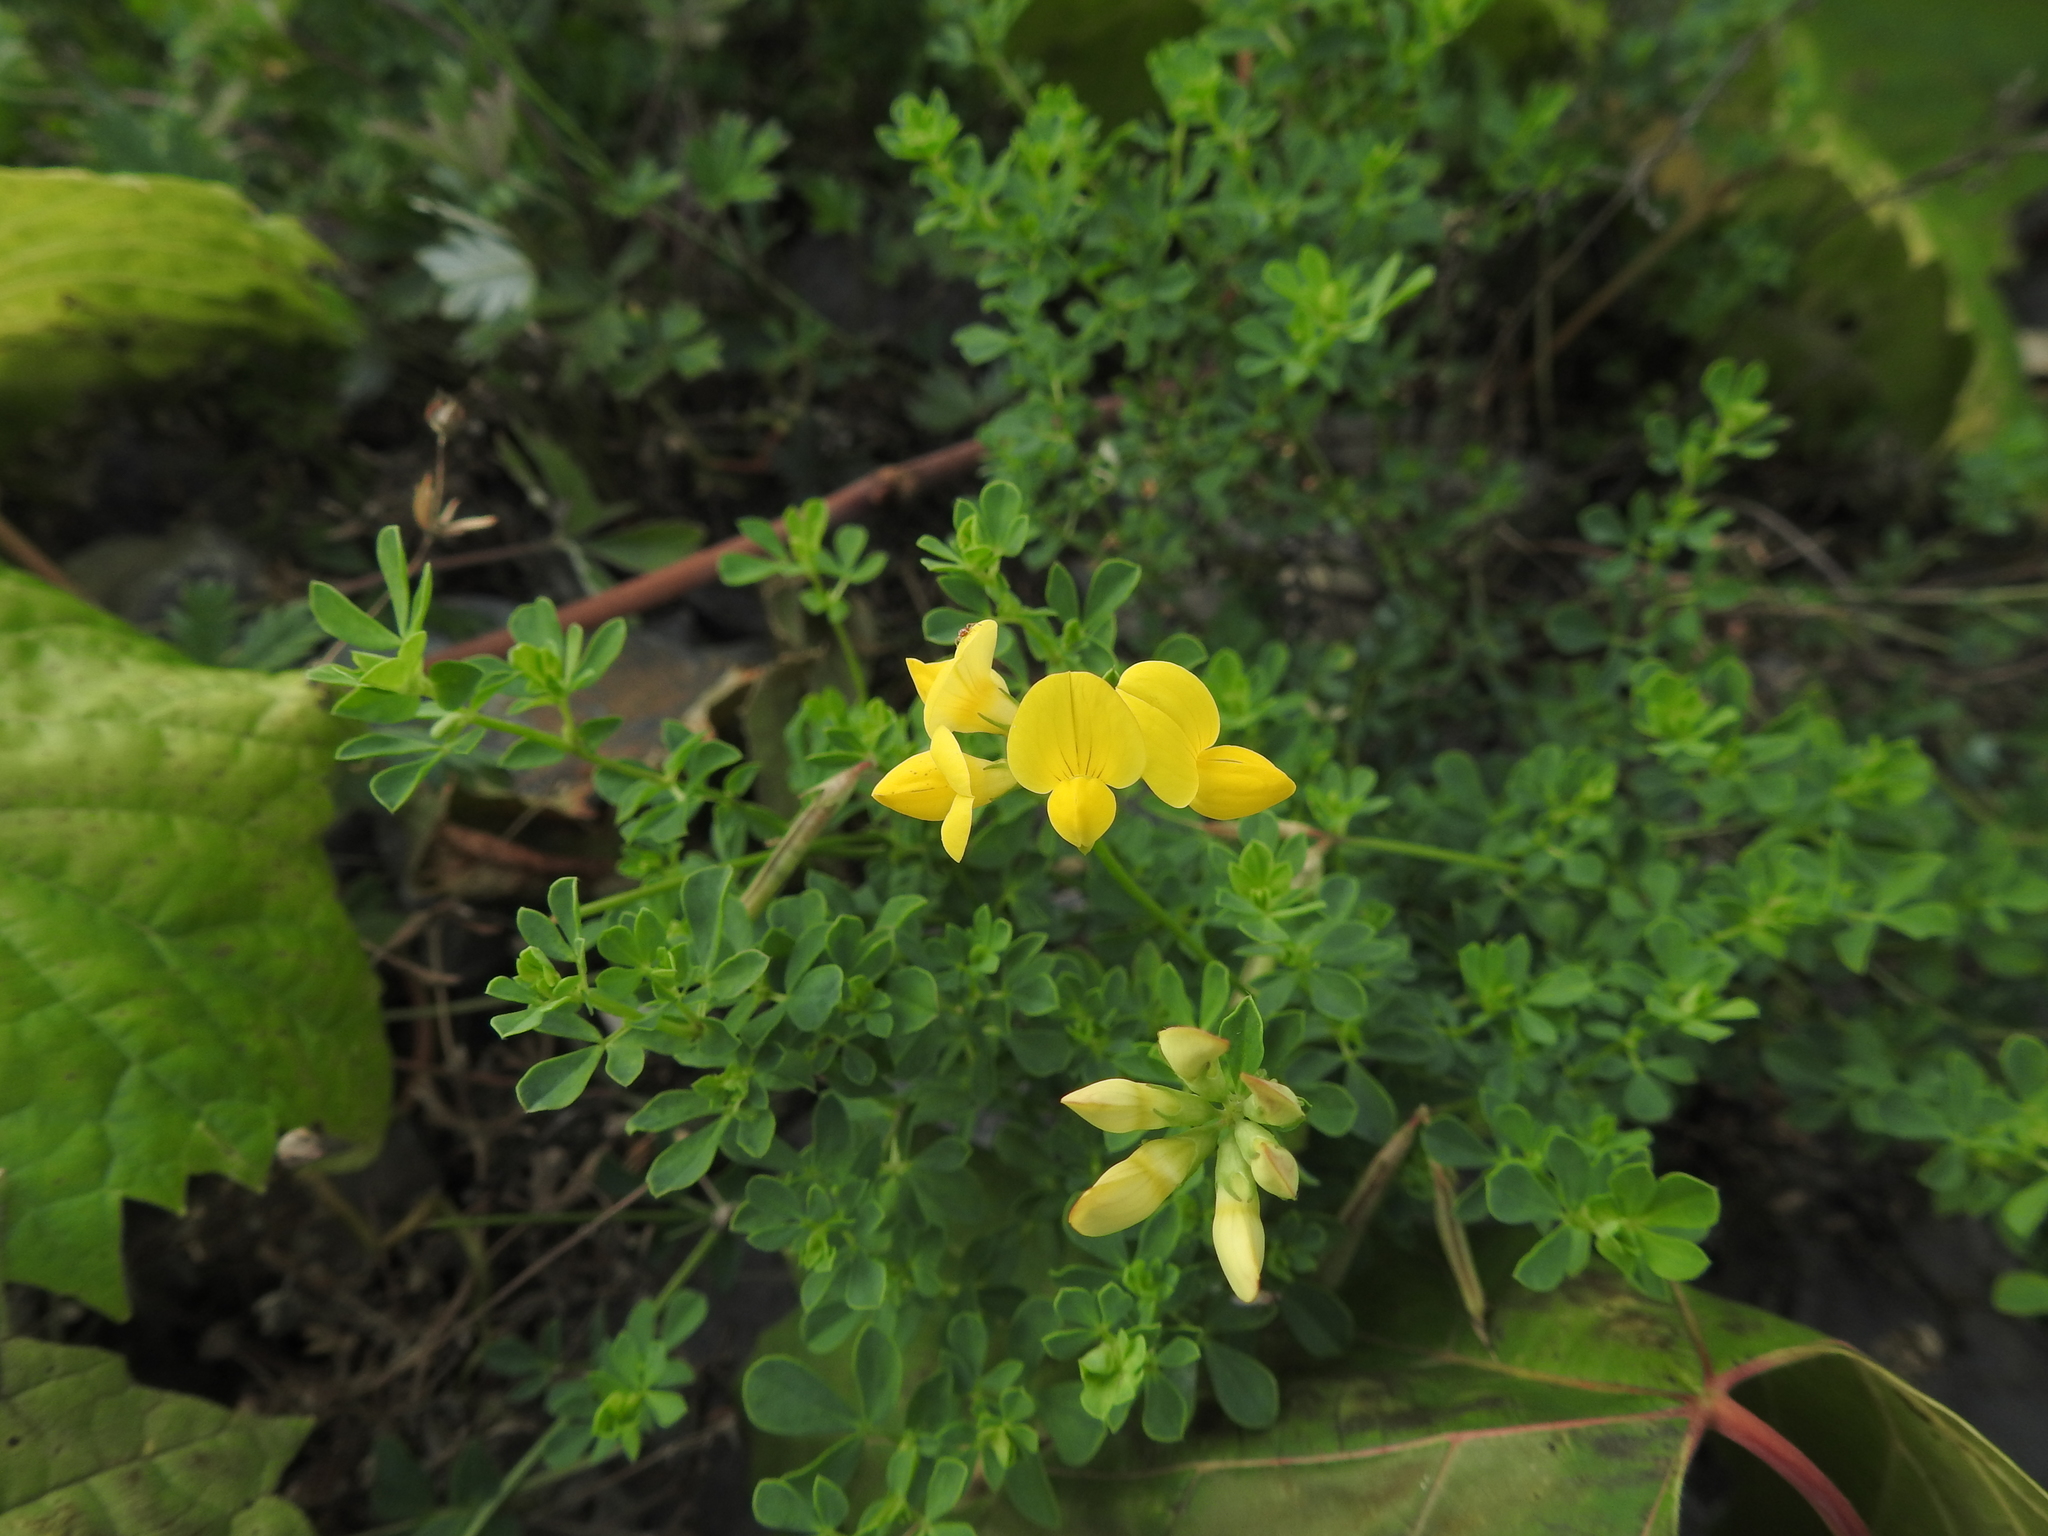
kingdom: Plantae
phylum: Tracheophyta
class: Magnoliopsida
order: Fabales
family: Fabaceae
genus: Lotus
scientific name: Lotus corniculatus
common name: Common bird's-foot-trefoil
